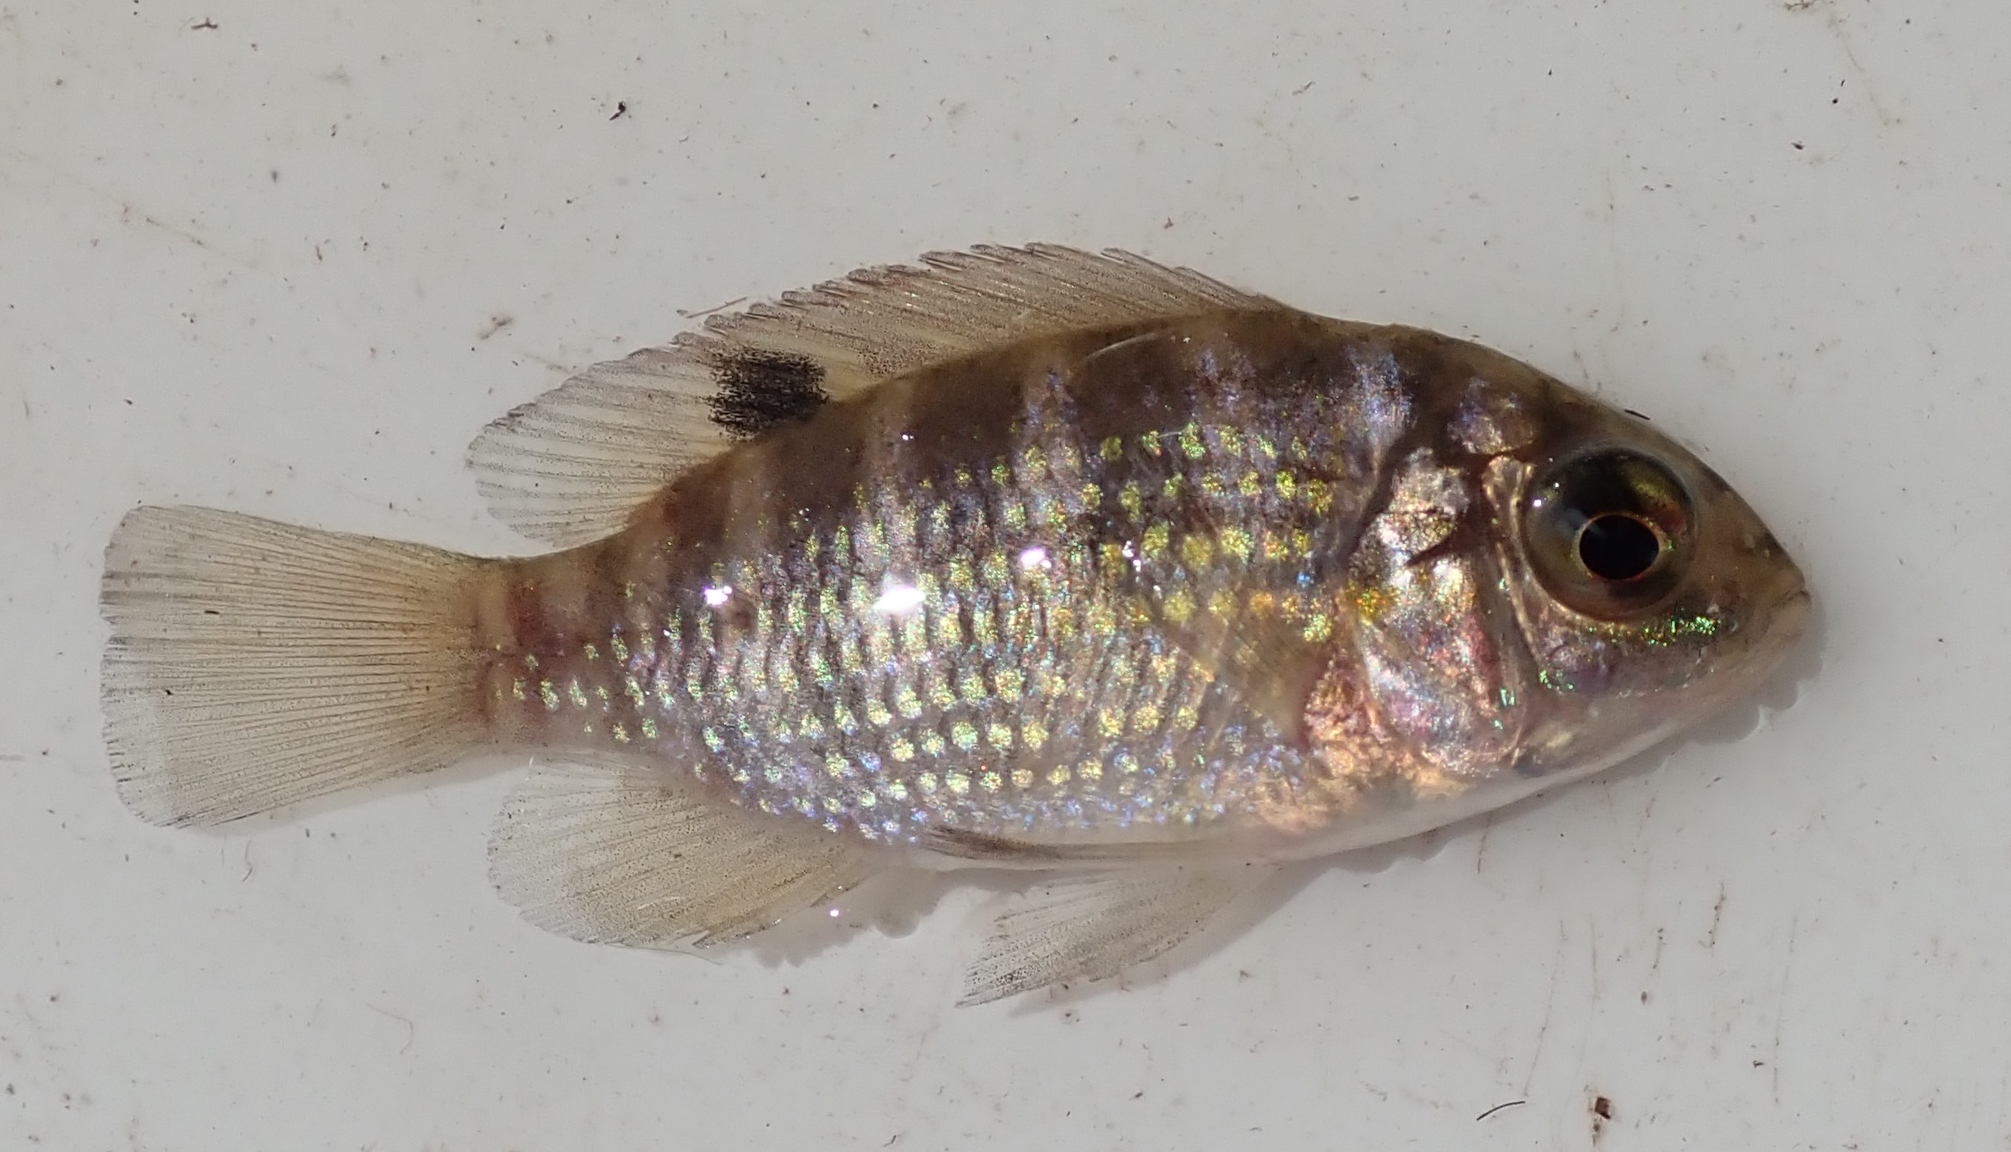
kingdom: Animalia
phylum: Chordata
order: Perciformes
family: Cichlidae
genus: Tilapia
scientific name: Tilapia sparrmanii
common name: Banded tilapia
